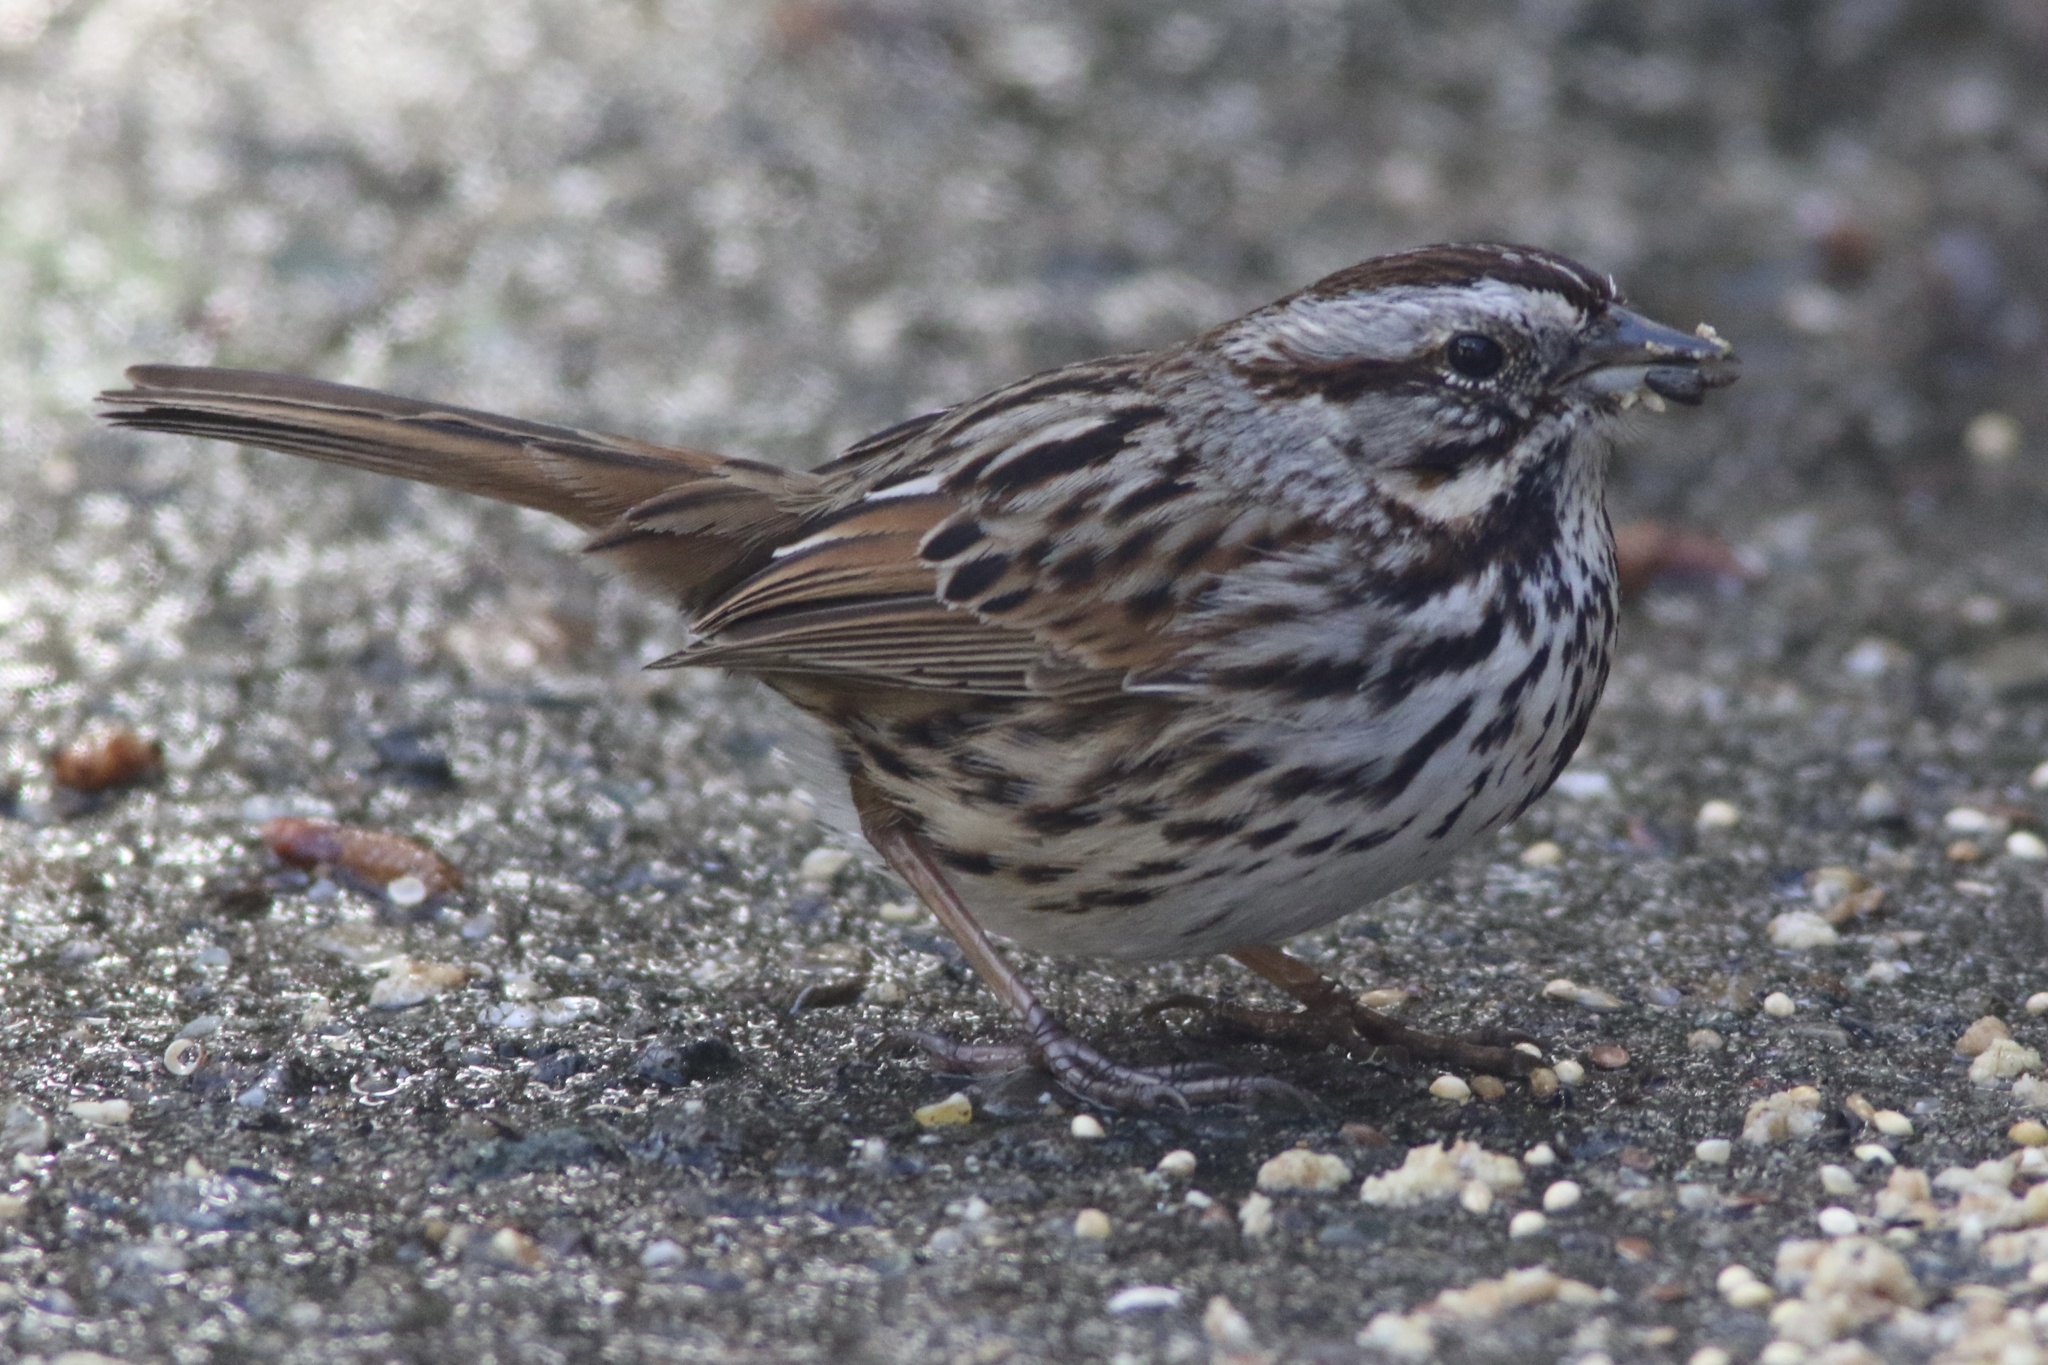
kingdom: Animalia
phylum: Chordata
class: Aves
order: Passeriformes
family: Passerellidae
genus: Melospiza
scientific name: Melospiza melodia
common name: Song sparrow
